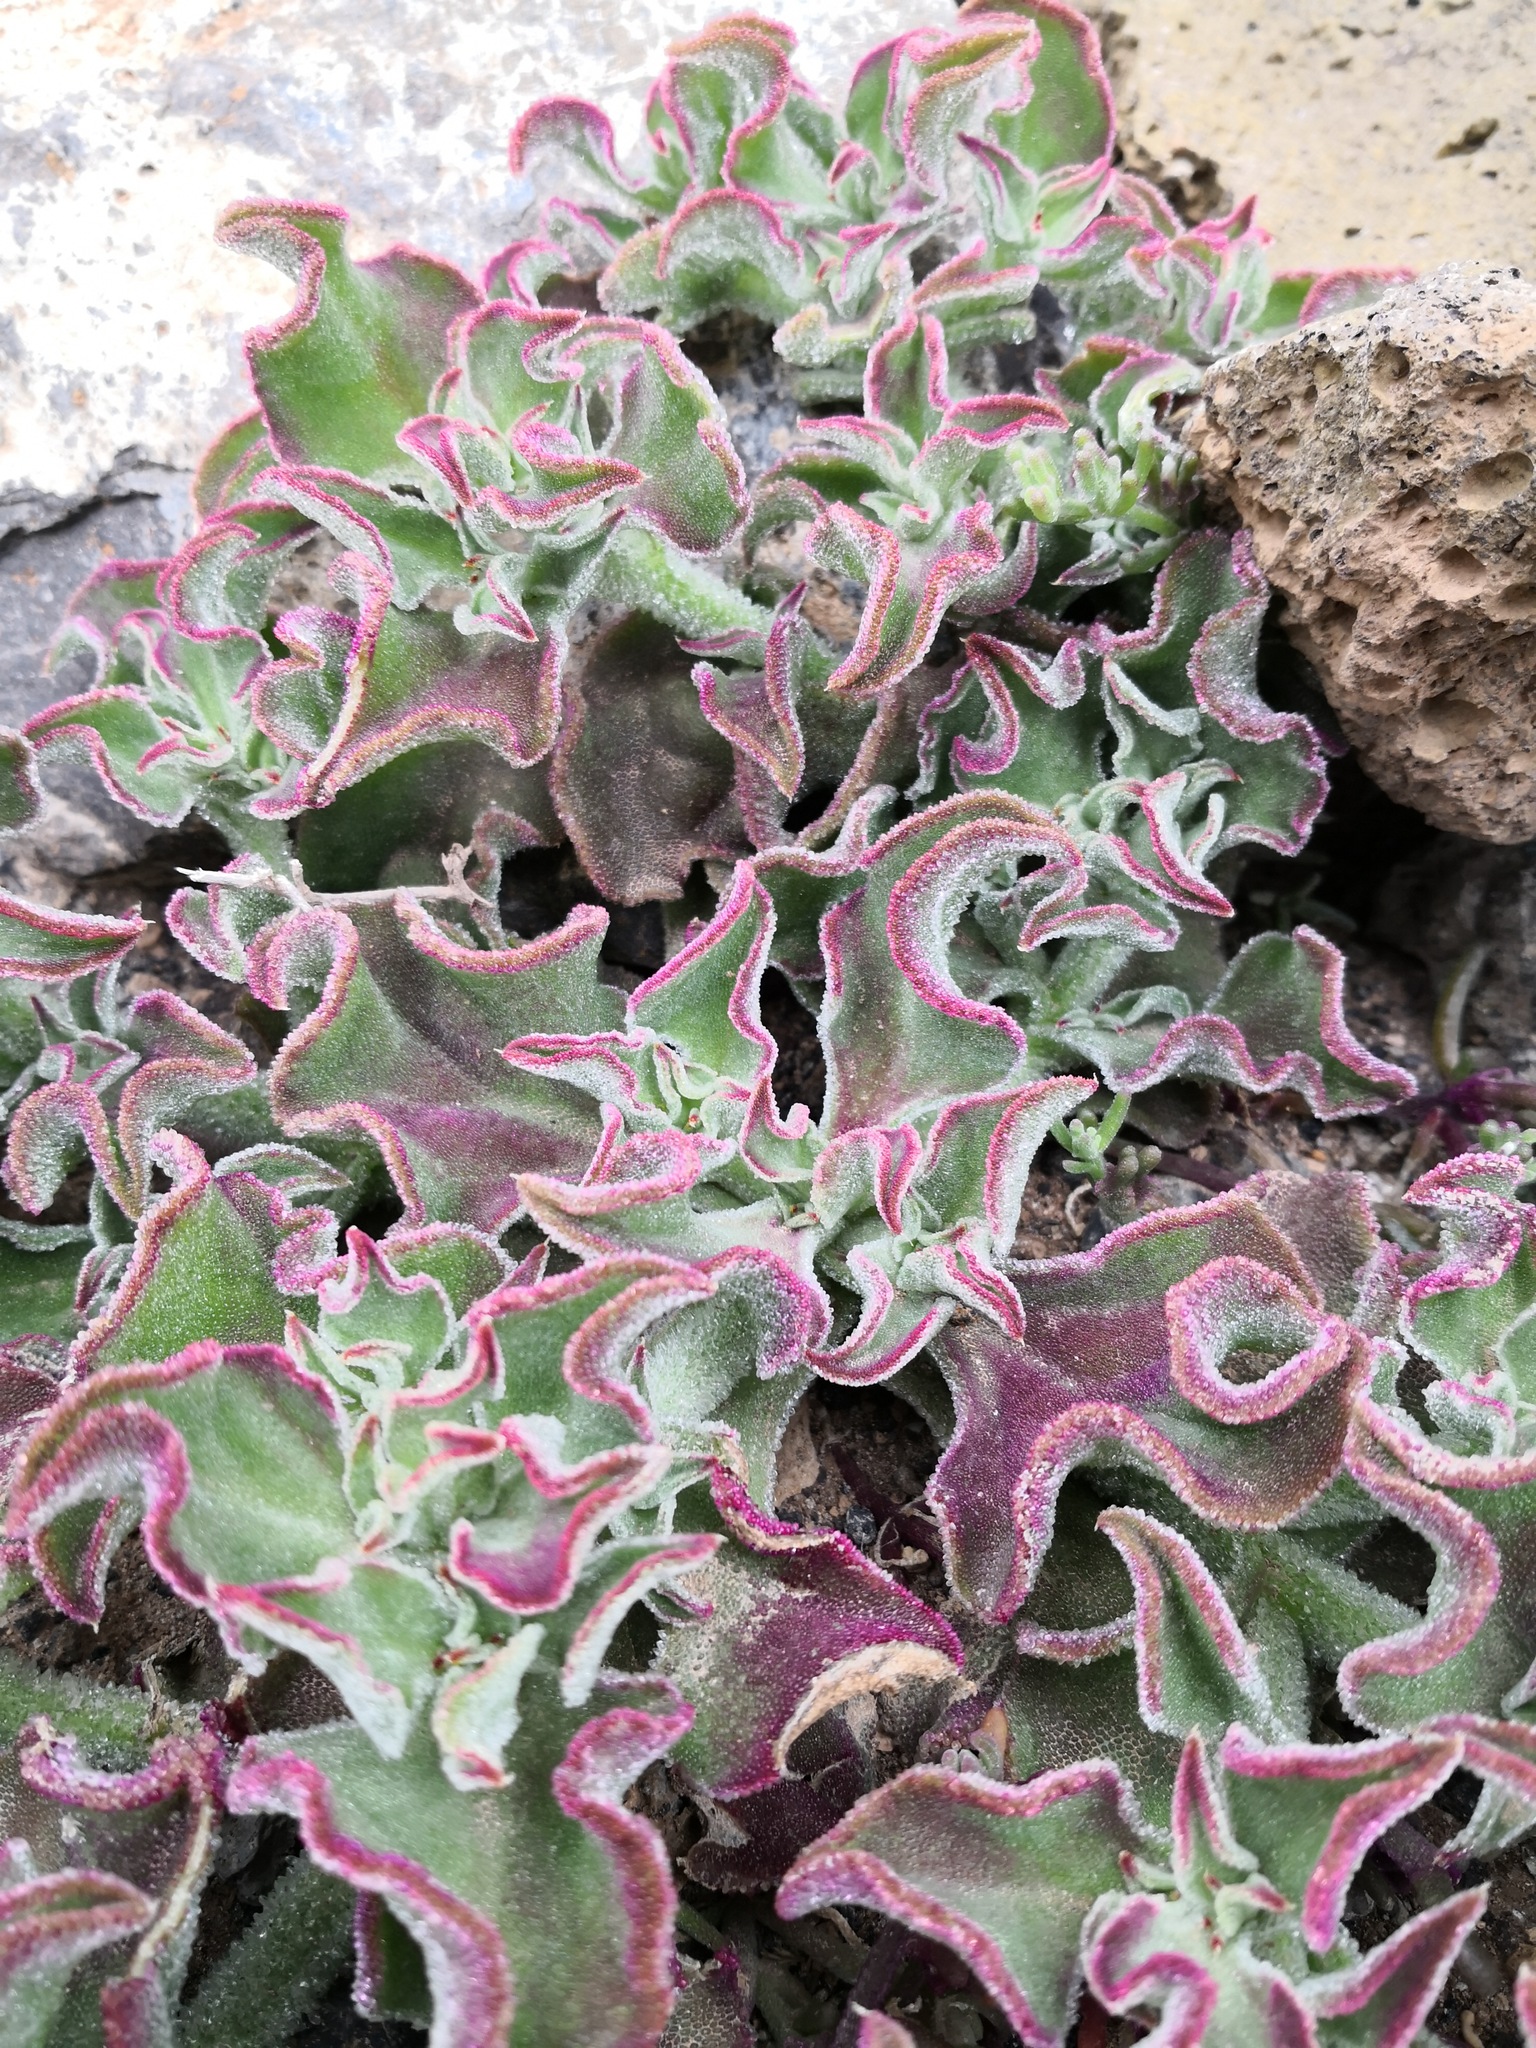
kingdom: Plantae
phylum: Tracheophyta
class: Magnoliopsida
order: Caryophyllales
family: Aizoaceae
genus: Mesembryanthemum
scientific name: Mesembryanthemum crystallinum
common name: Common iceplant
